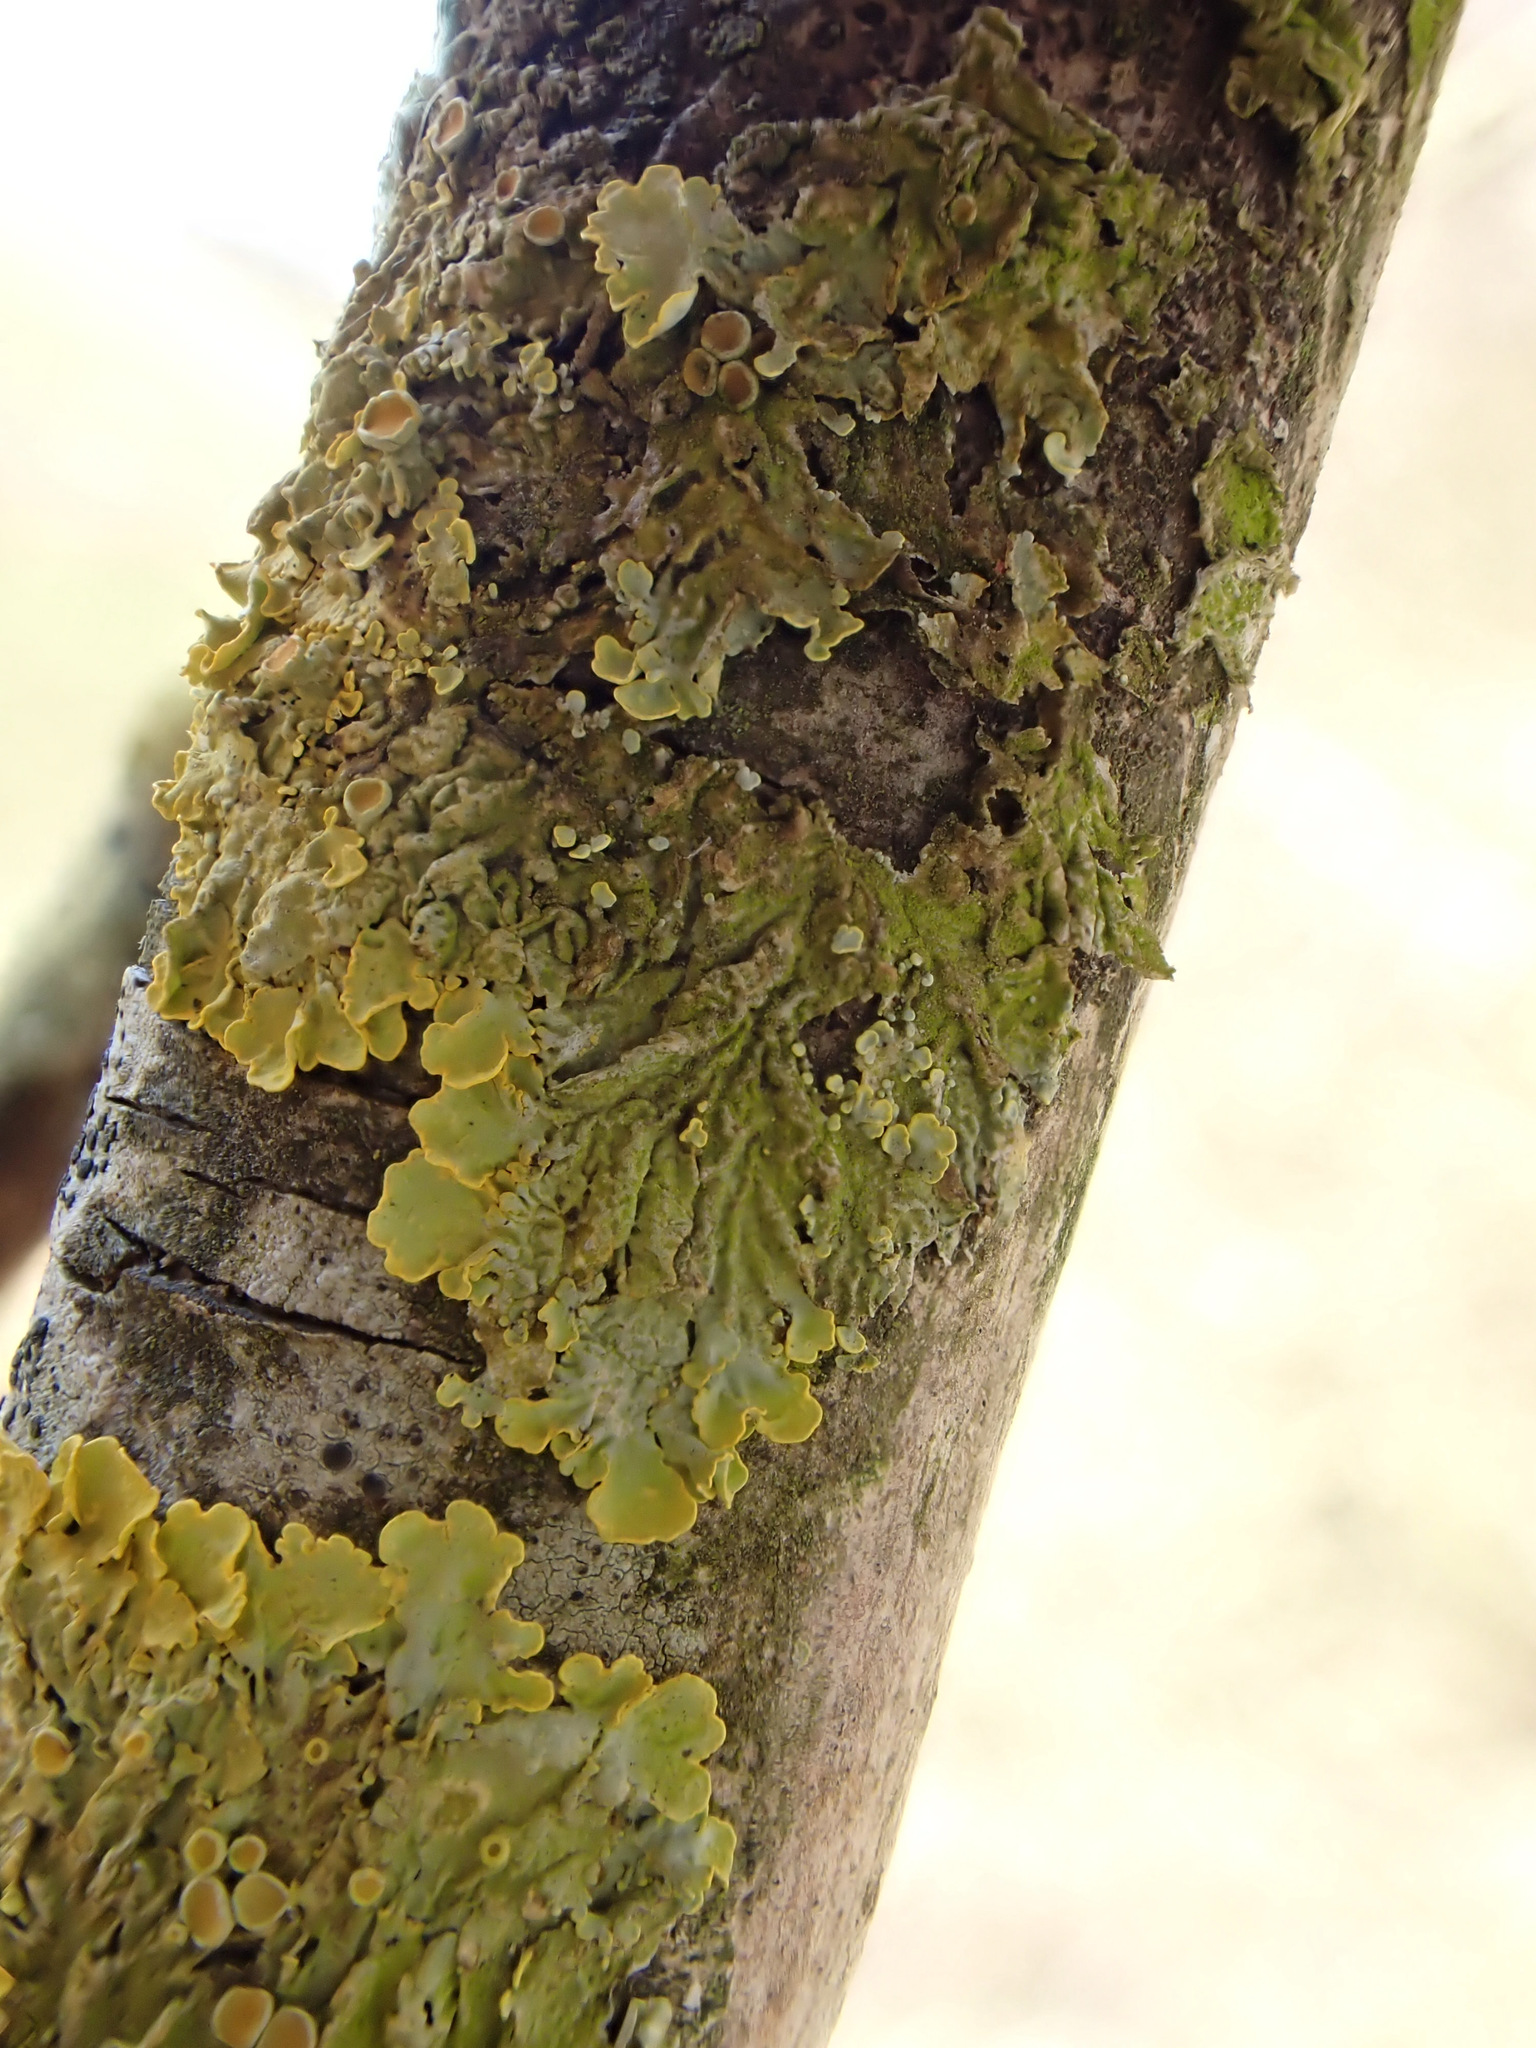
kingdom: Fungi
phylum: Ascomycota
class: Lecanoromycetes
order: Teloschistales
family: Teloschistaceae
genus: Xanthoria
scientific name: Xanthoria parietina
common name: Common orange lichen
